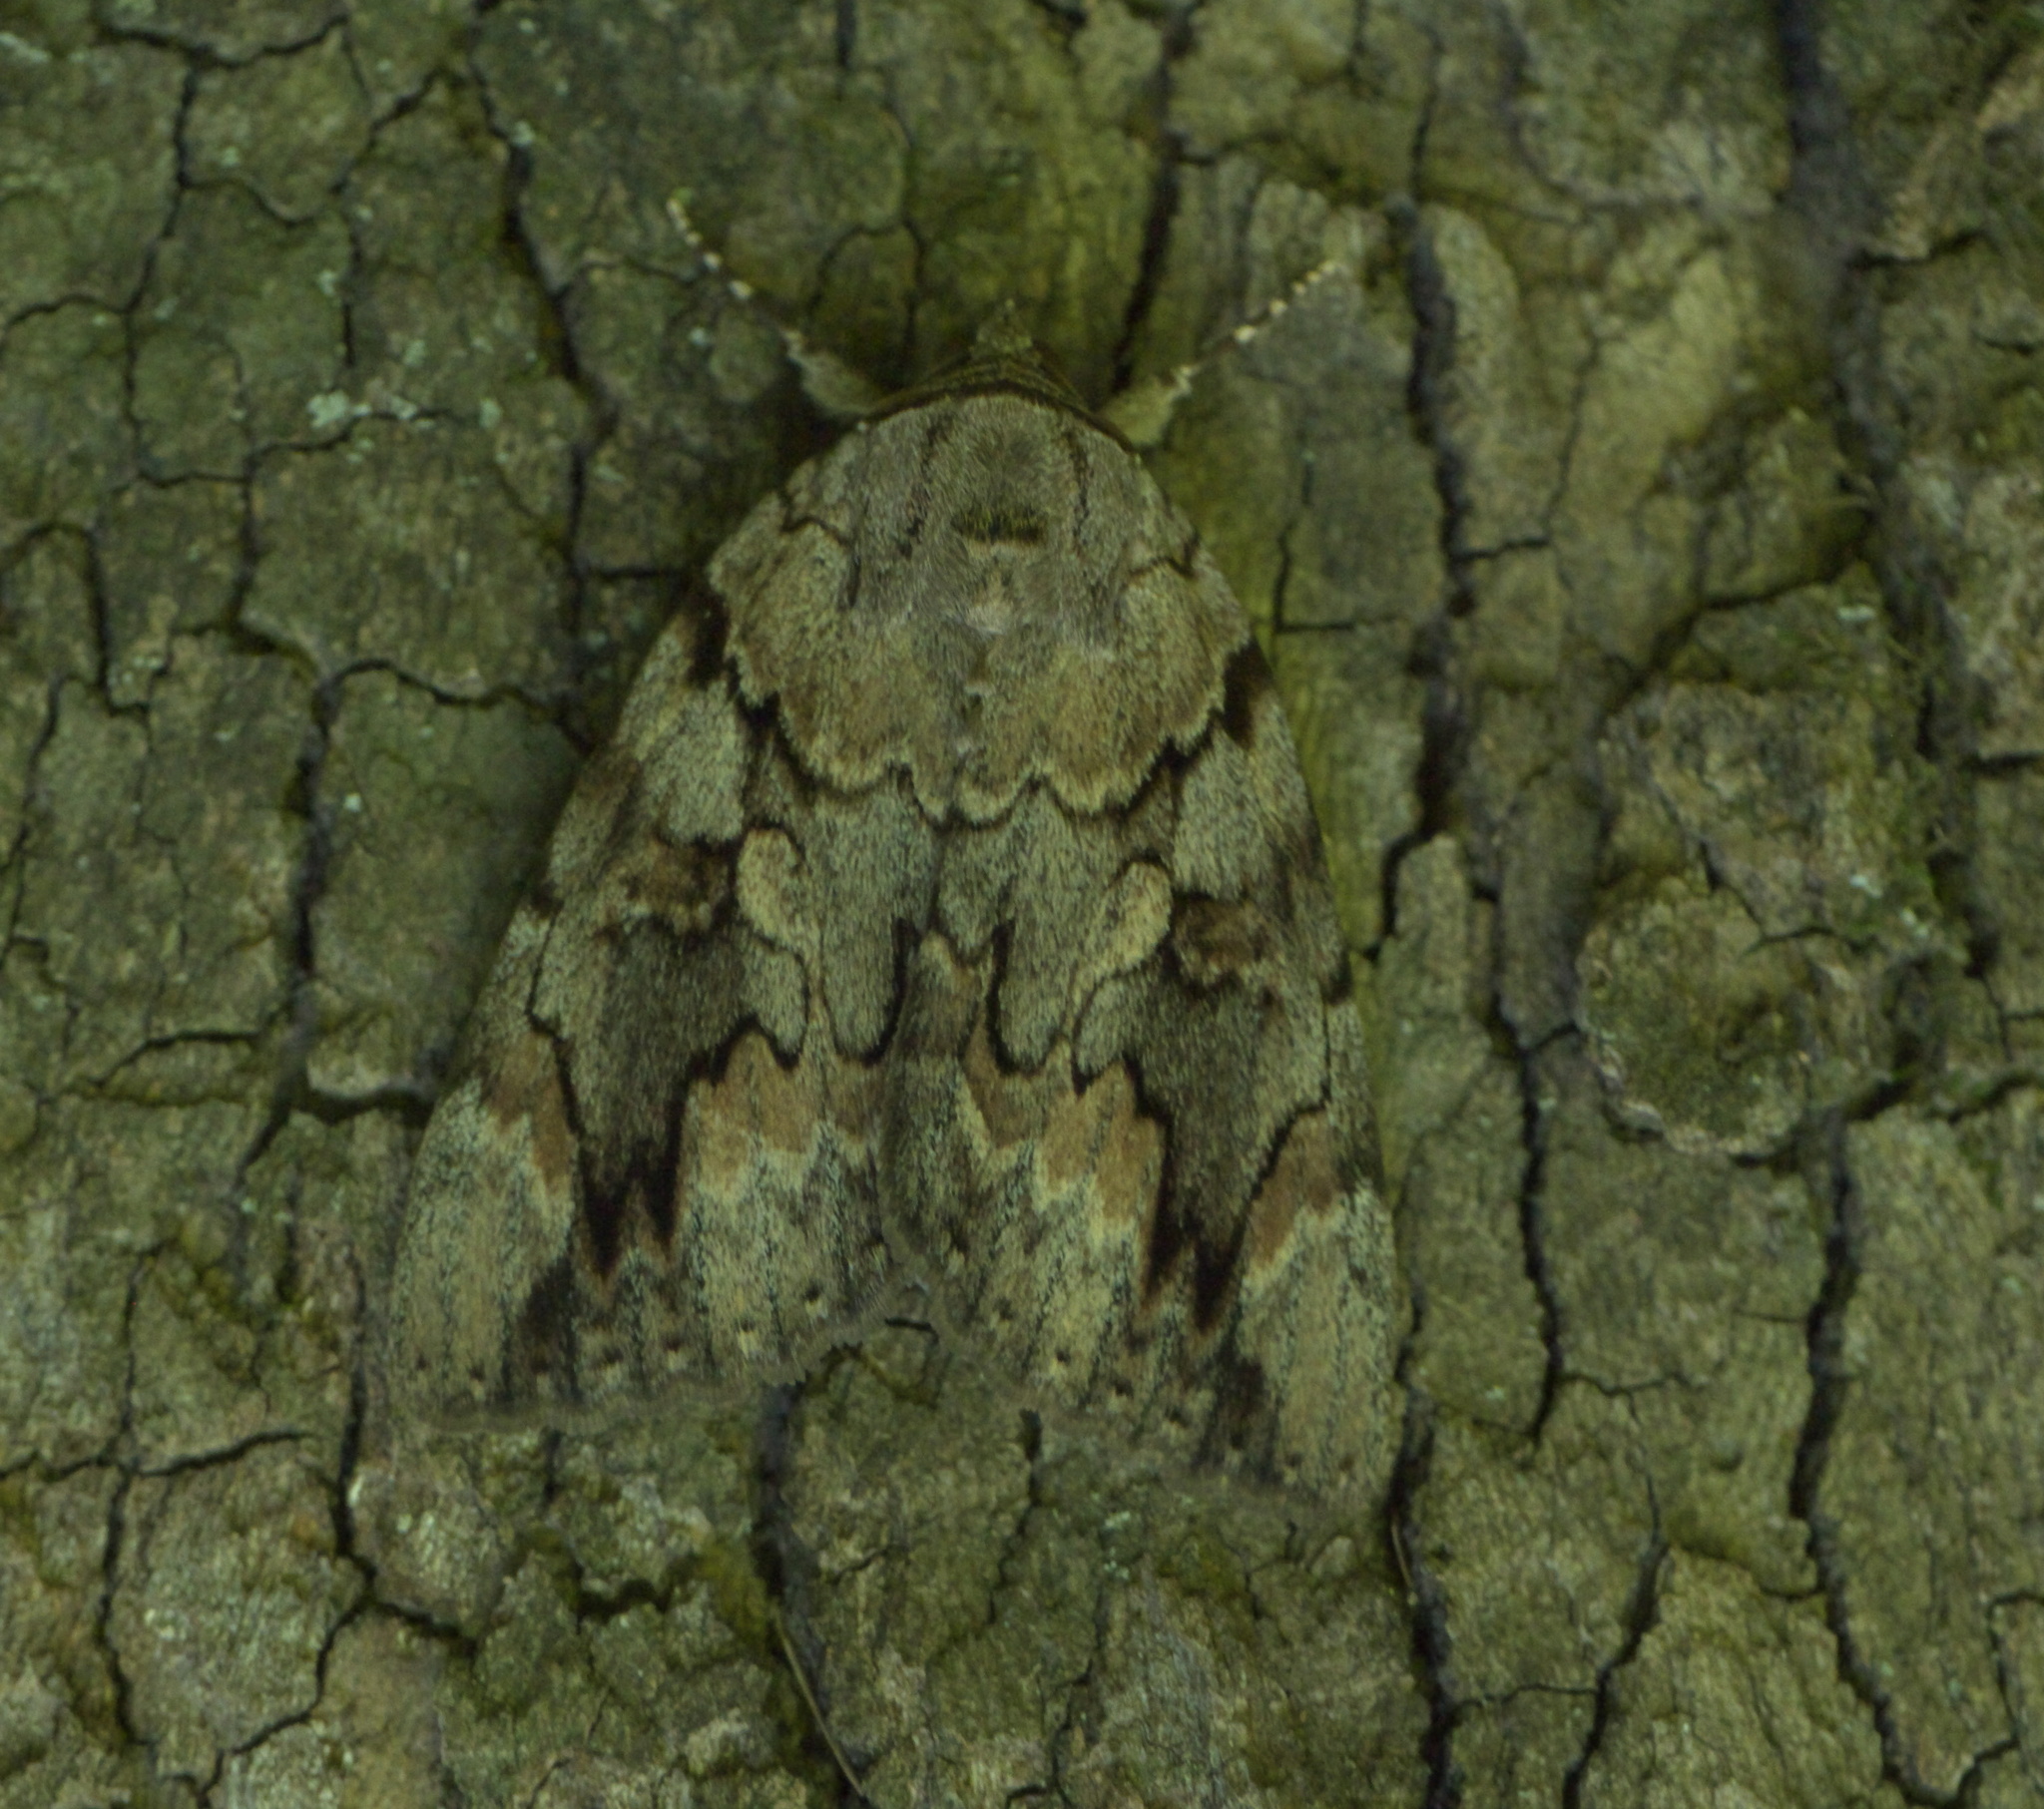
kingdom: Animalia
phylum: Arthropoda
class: Insecta
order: Lepidoptera
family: Erebidae
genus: Catocala
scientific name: Catocala agrippina
